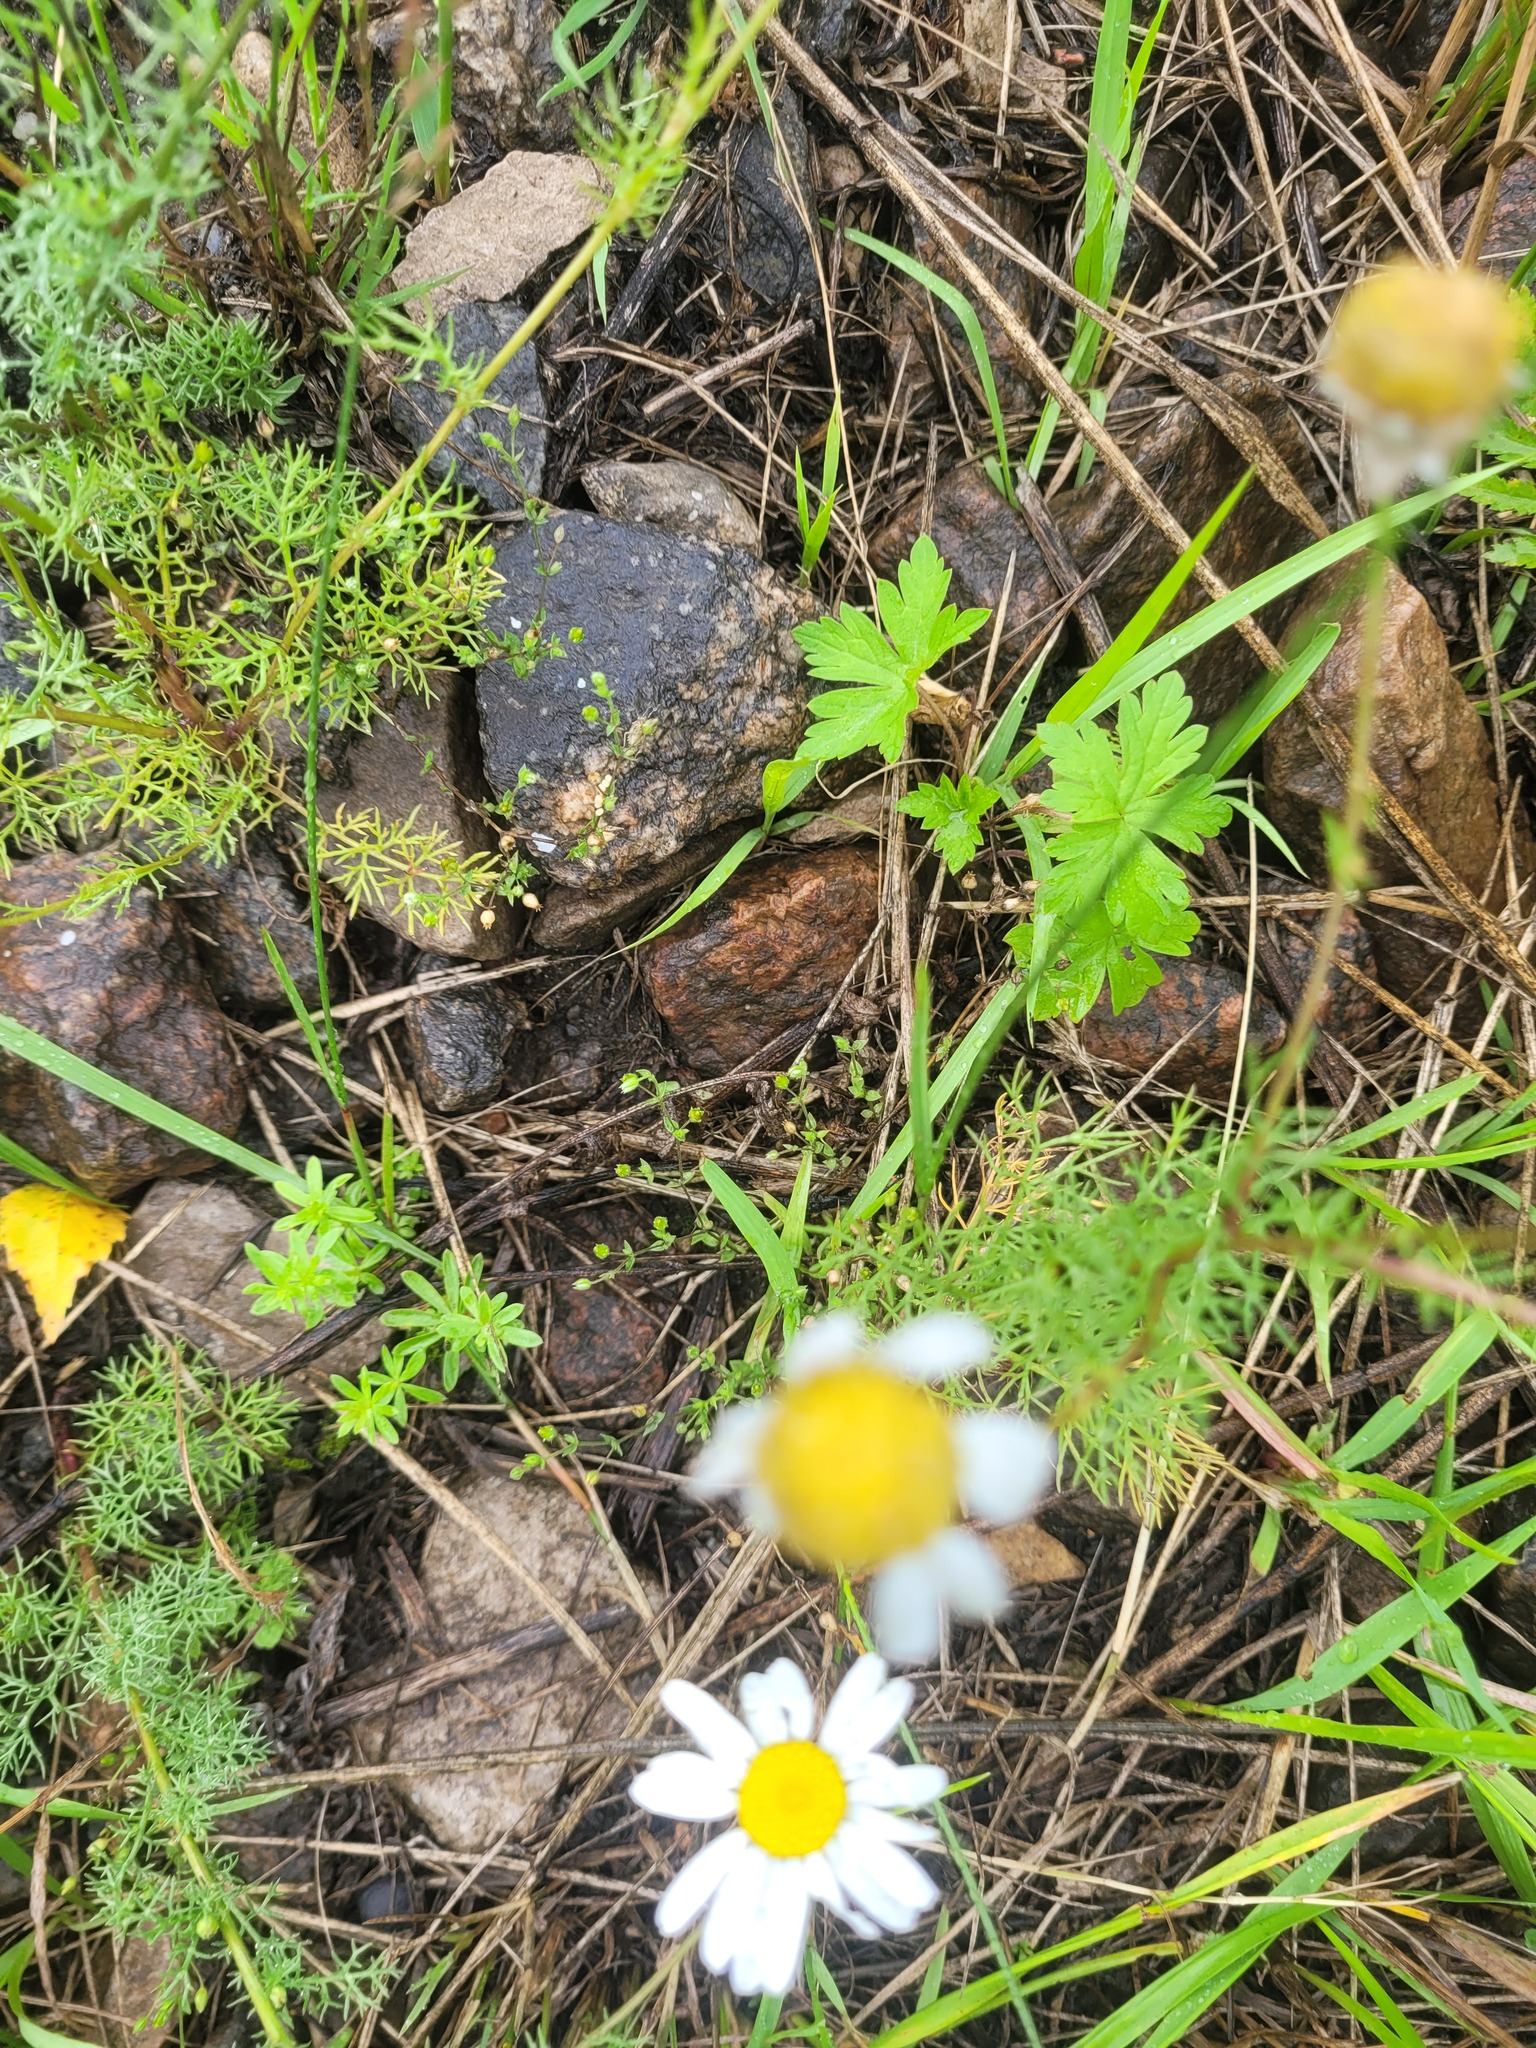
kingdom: Plantae
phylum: Tracheophyta
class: Magnoliopsida
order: Caryophyllales
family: Caryophyllaceae
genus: Arenaria
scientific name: Arenaria serpyllifolia
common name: Thyme-leaved sandwort
